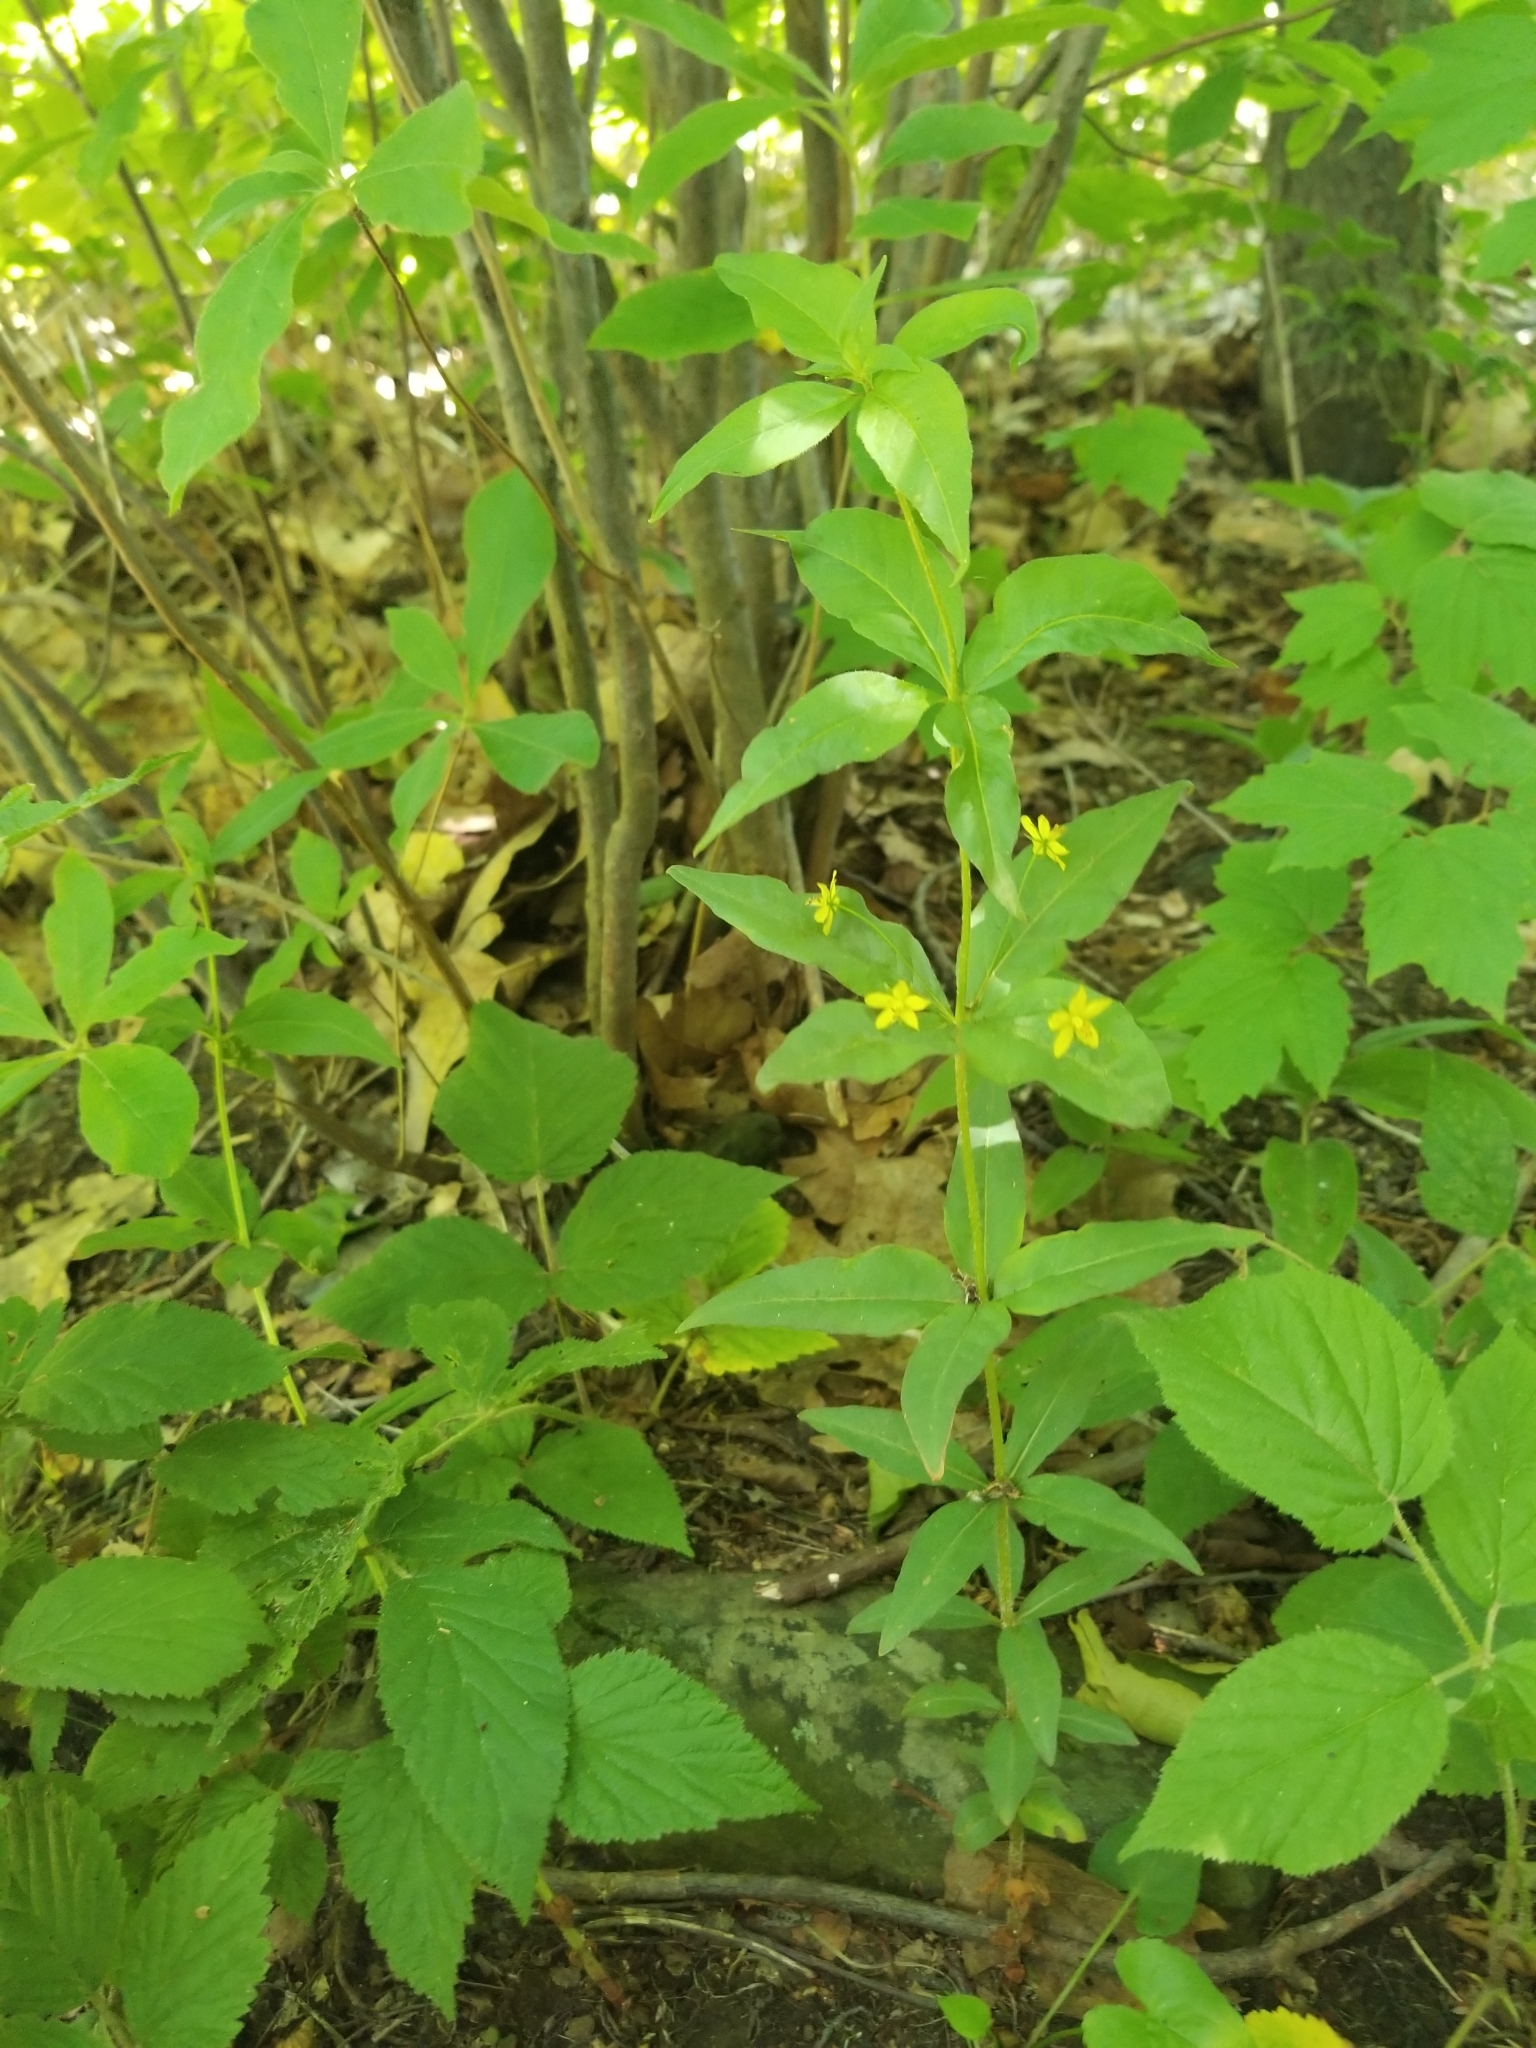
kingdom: Plantae
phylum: Tracheophyta
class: Magnoliopsida
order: Ericales
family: Primulaceae
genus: Lysimachia
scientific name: Lysimachia quadrifolia
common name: Whorled loosestrife
